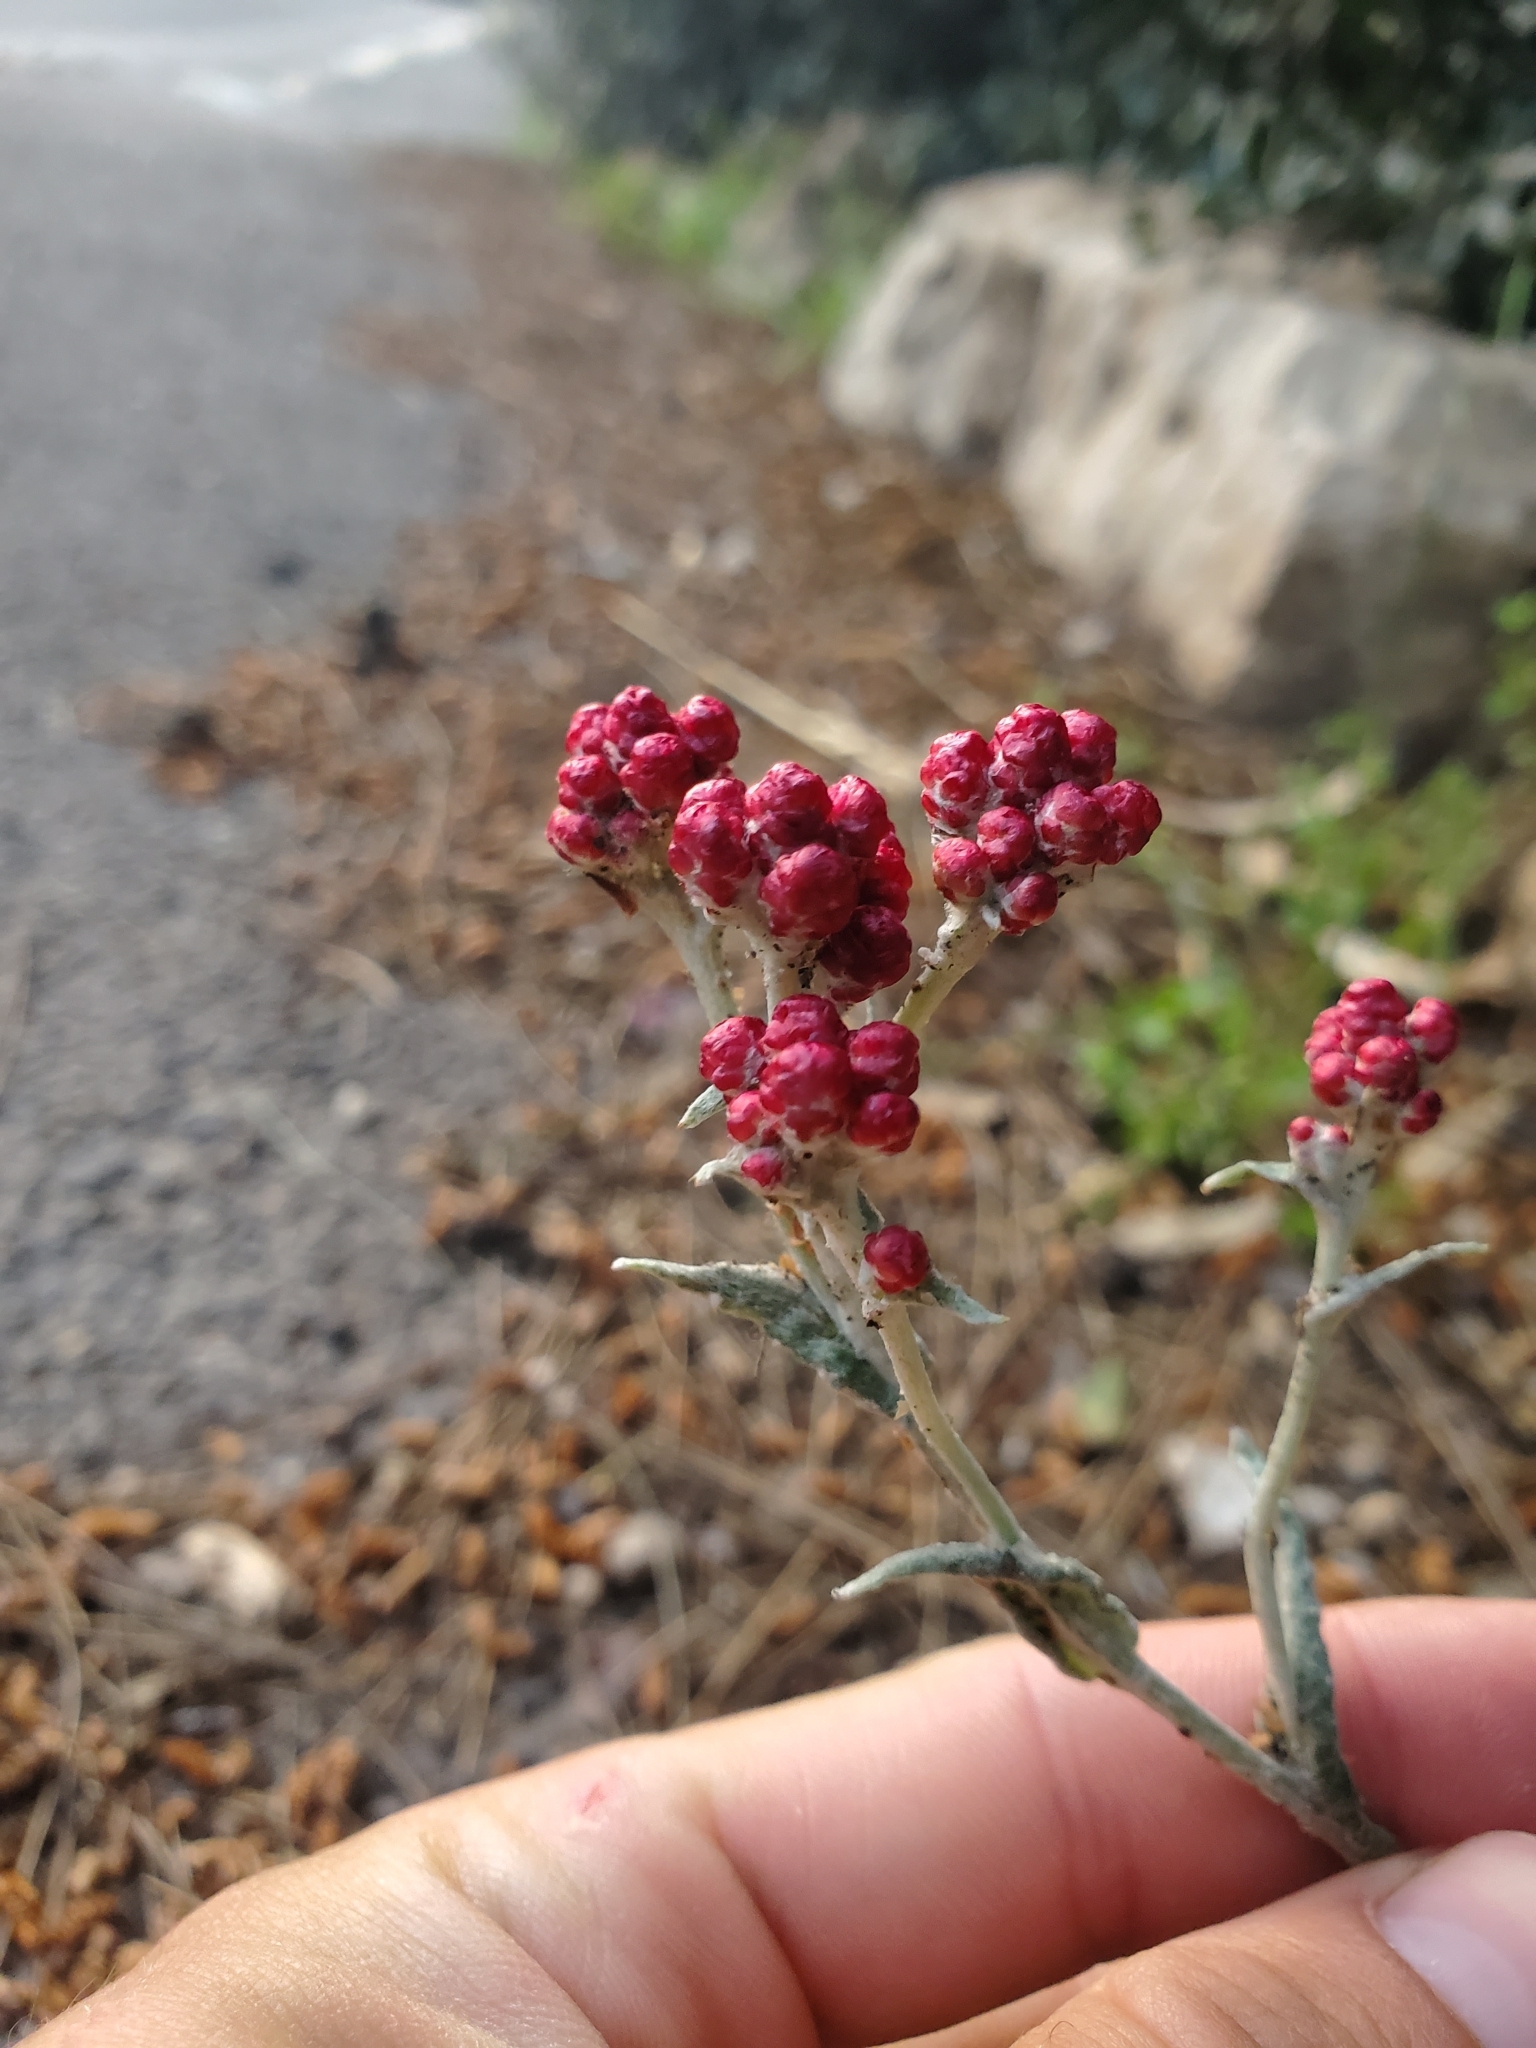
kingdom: Plantae
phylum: Tracheophyta
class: Magnoliopsida
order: Asterales
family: Asteraceae
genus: Helichrysum
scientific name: Helichrysum sanguineum
